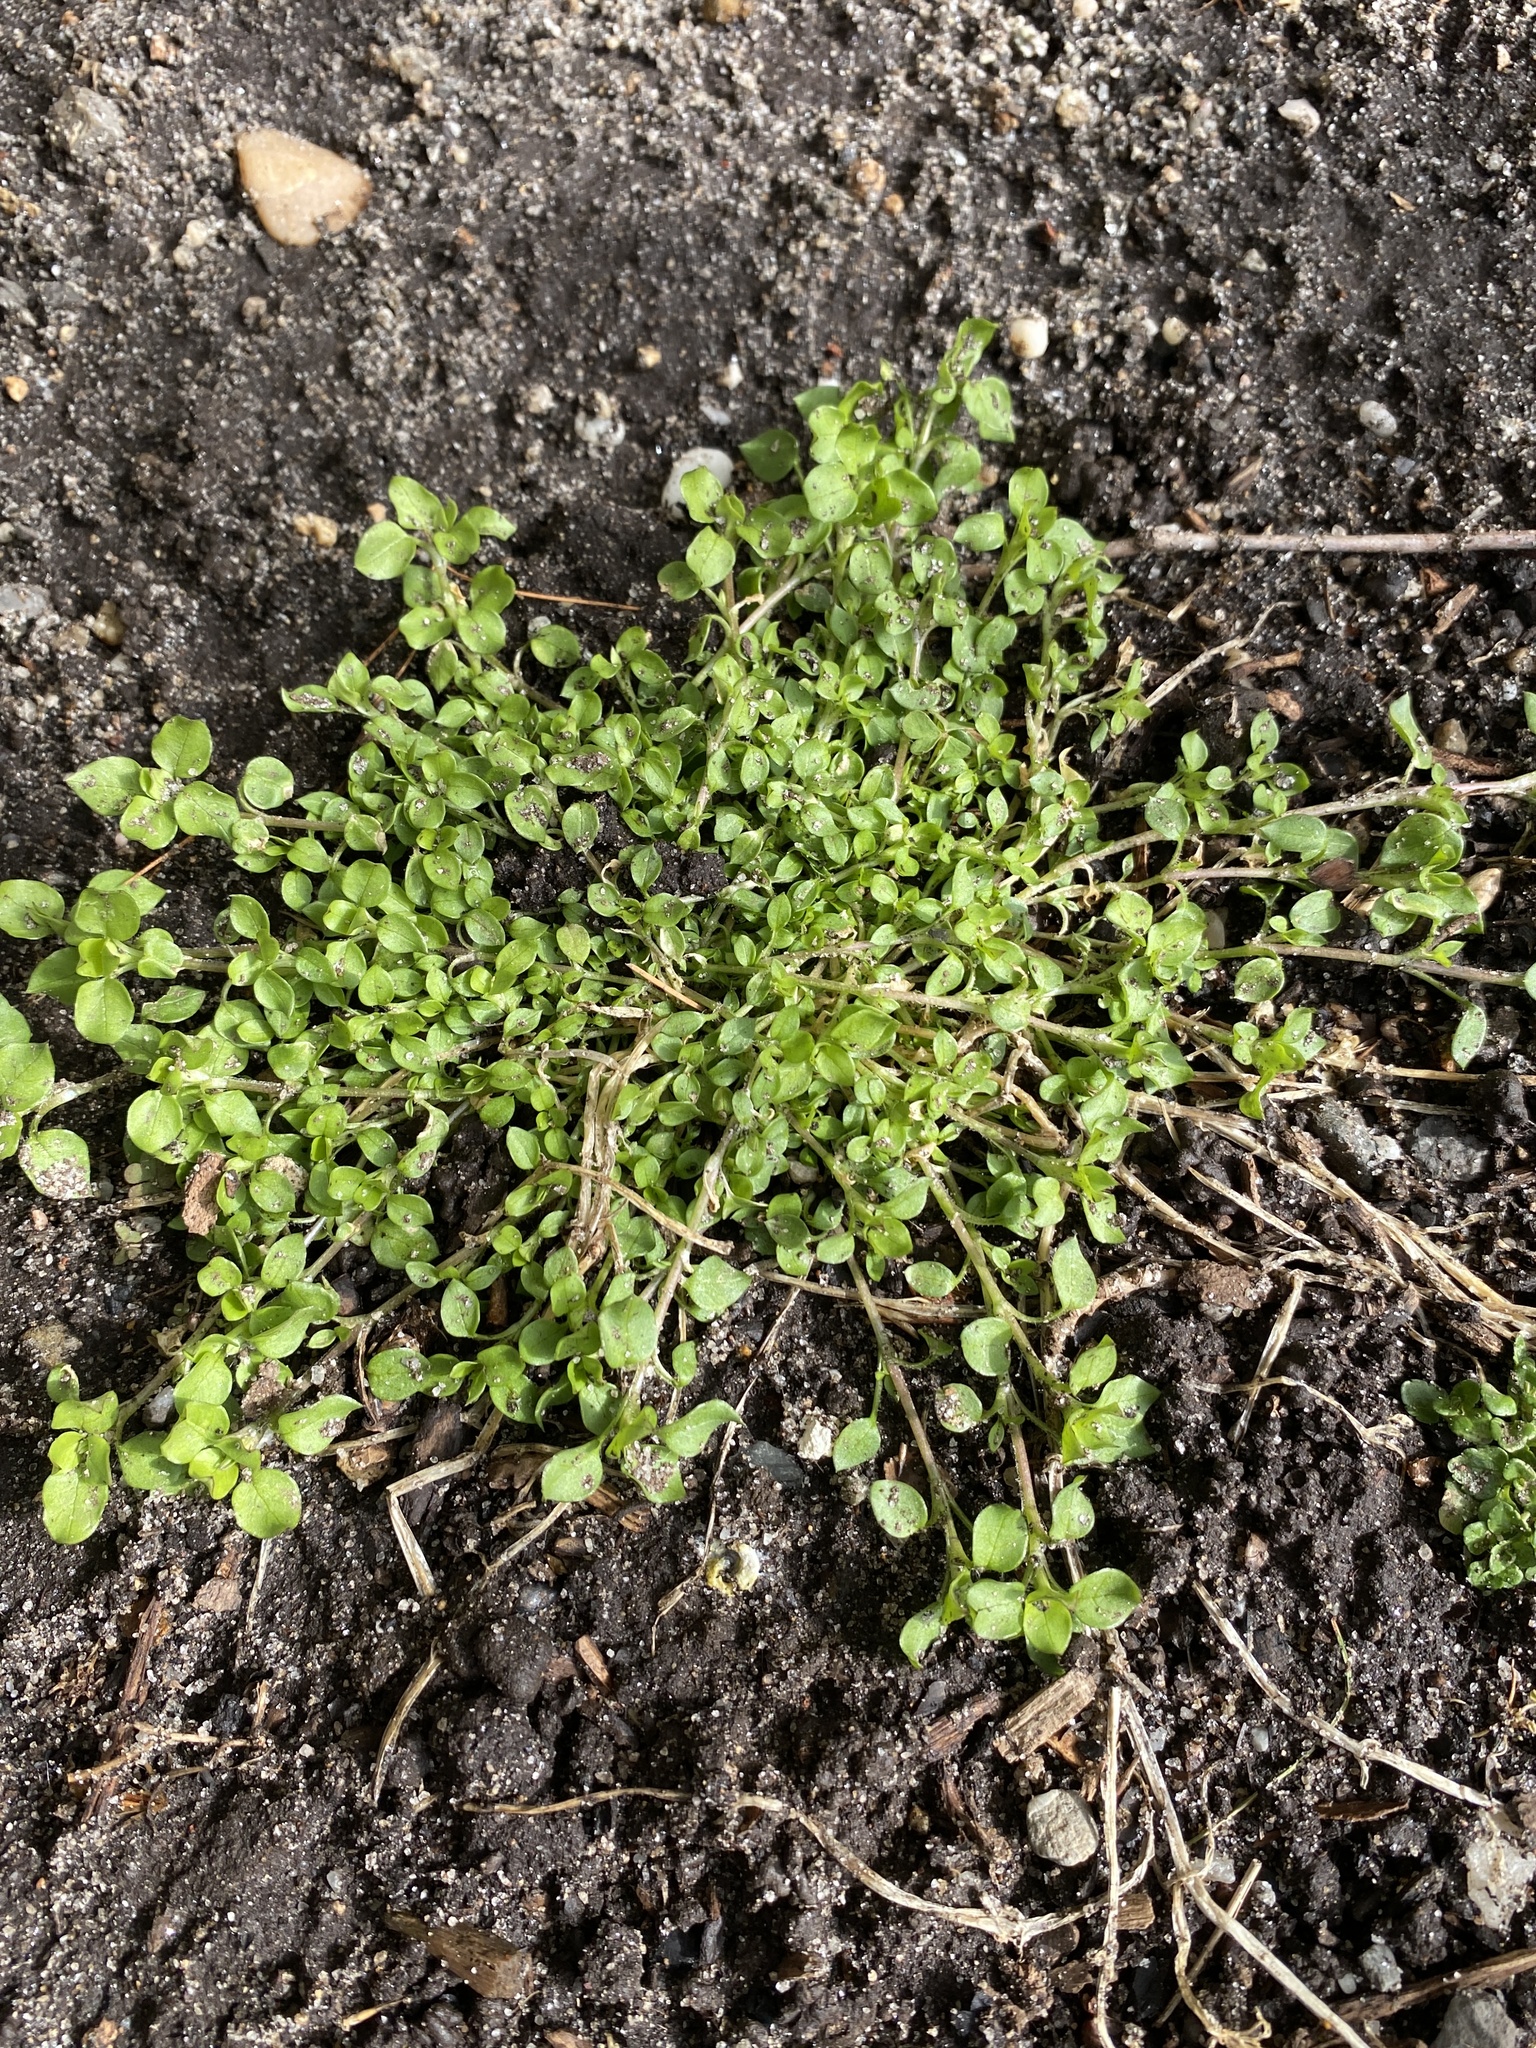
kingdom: Plantae
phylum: Tracheophyta
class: Magnoliopsida
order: Caryophyllales
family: Caryophyllaceae
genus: Stellaria
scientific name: Stellaria media
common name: Common chickweed
